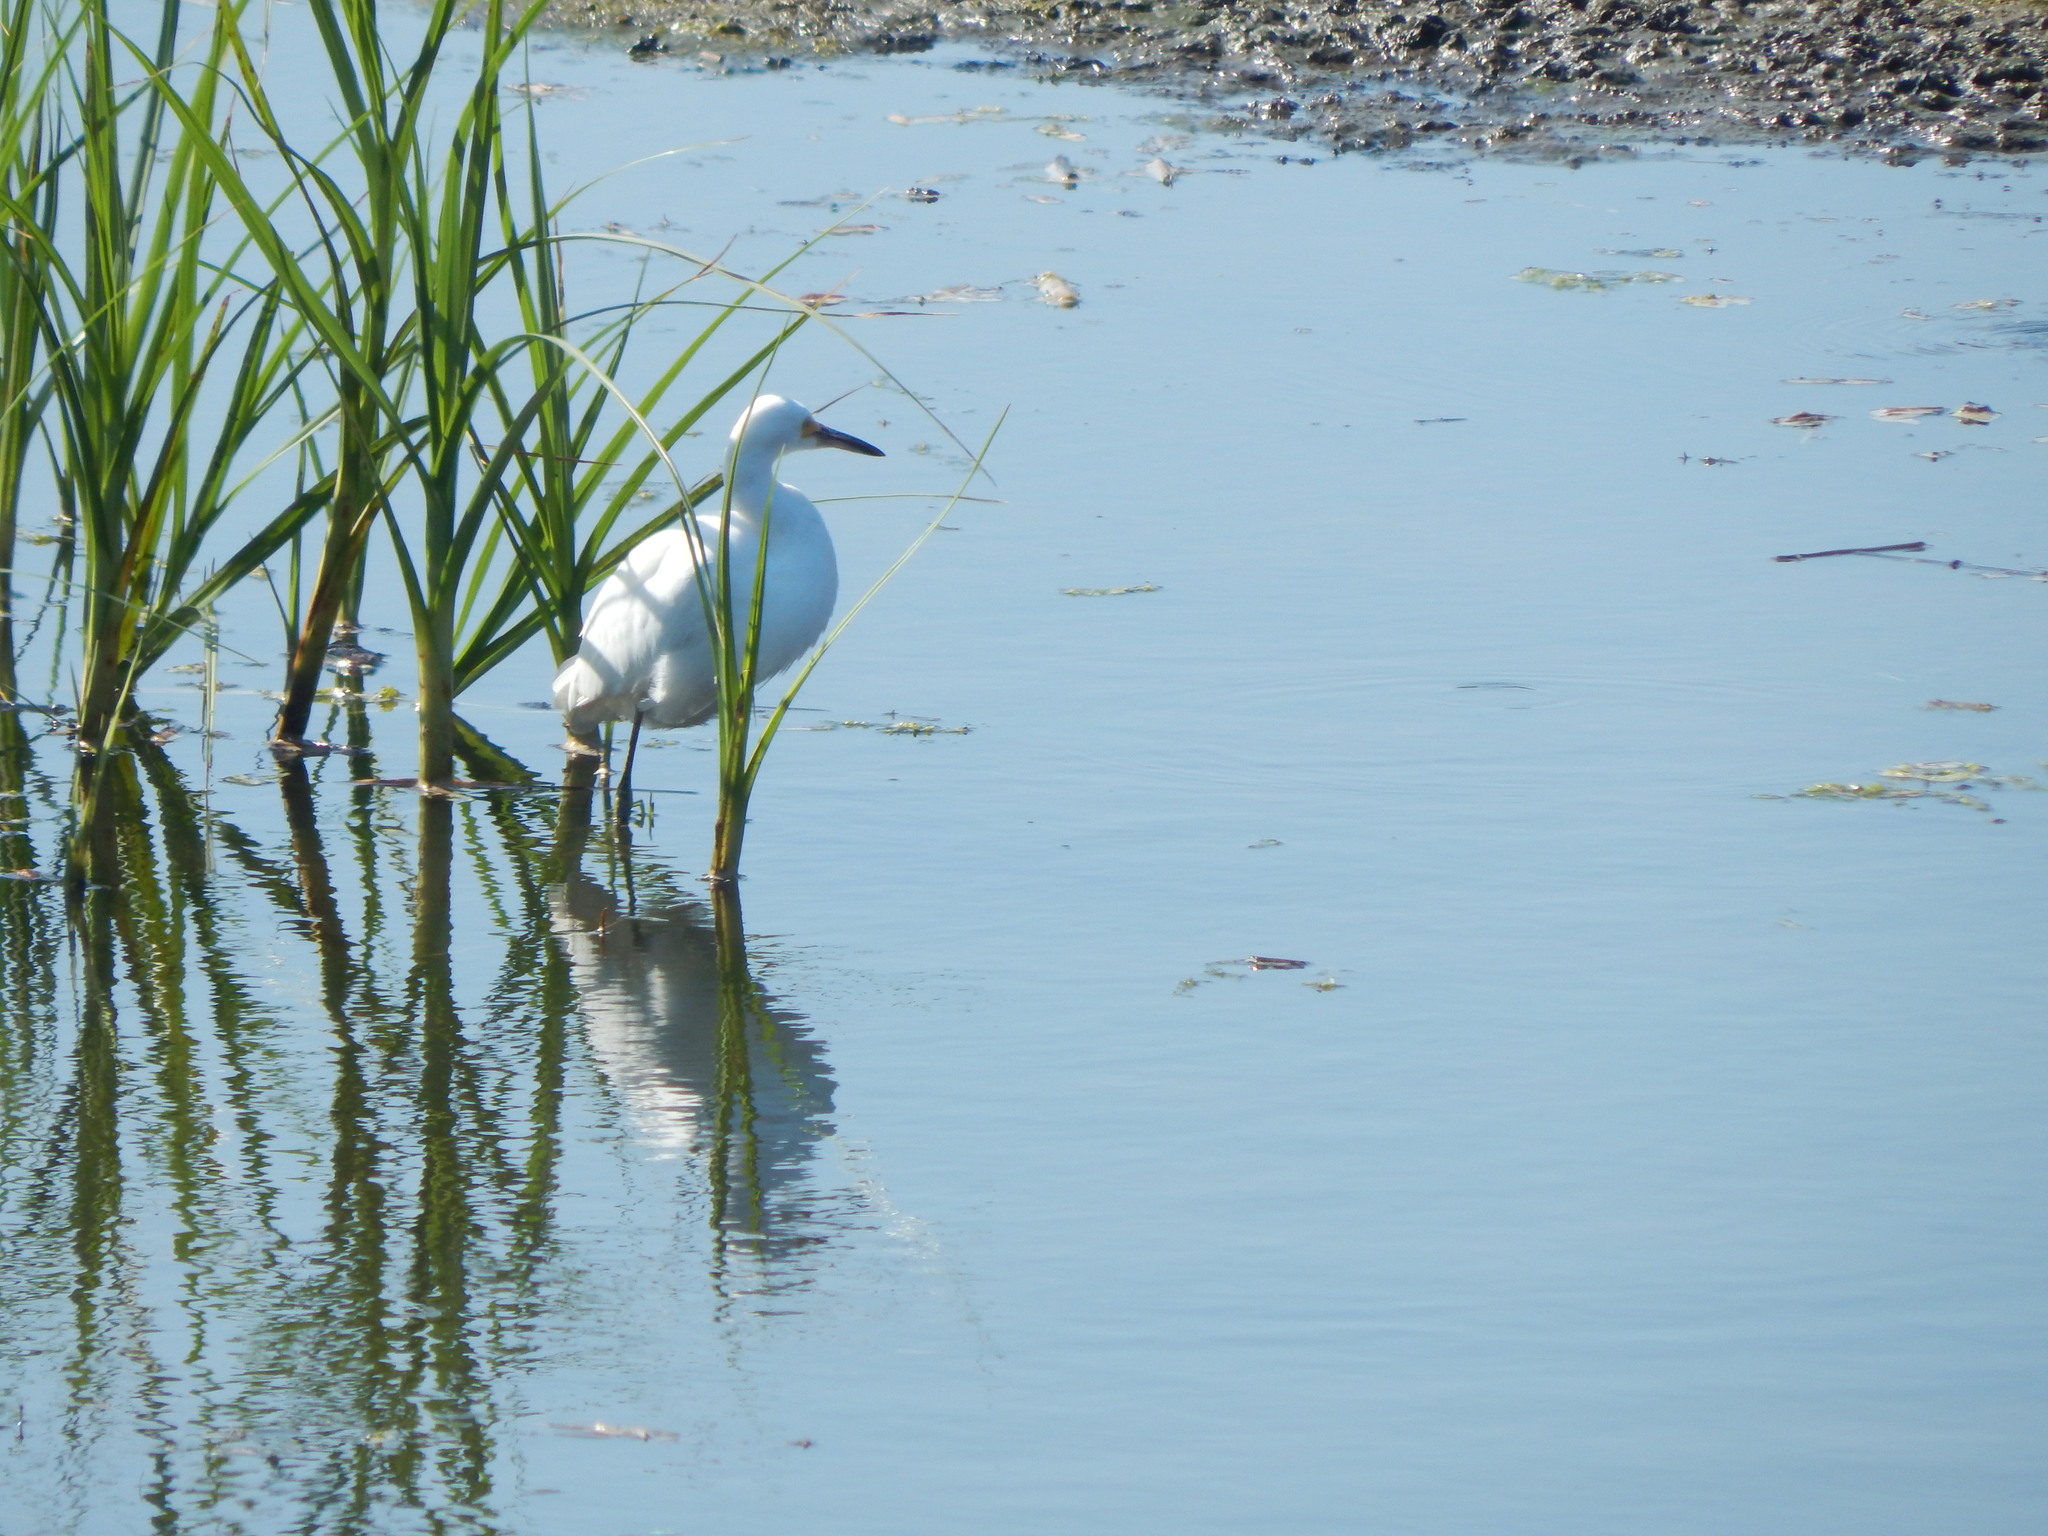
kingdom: Animalia
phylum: Chordata
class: Aves
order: Pelecaniformes
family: Ardeidae
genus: Egretta
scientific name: Egretta thula
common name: Snowy egret
